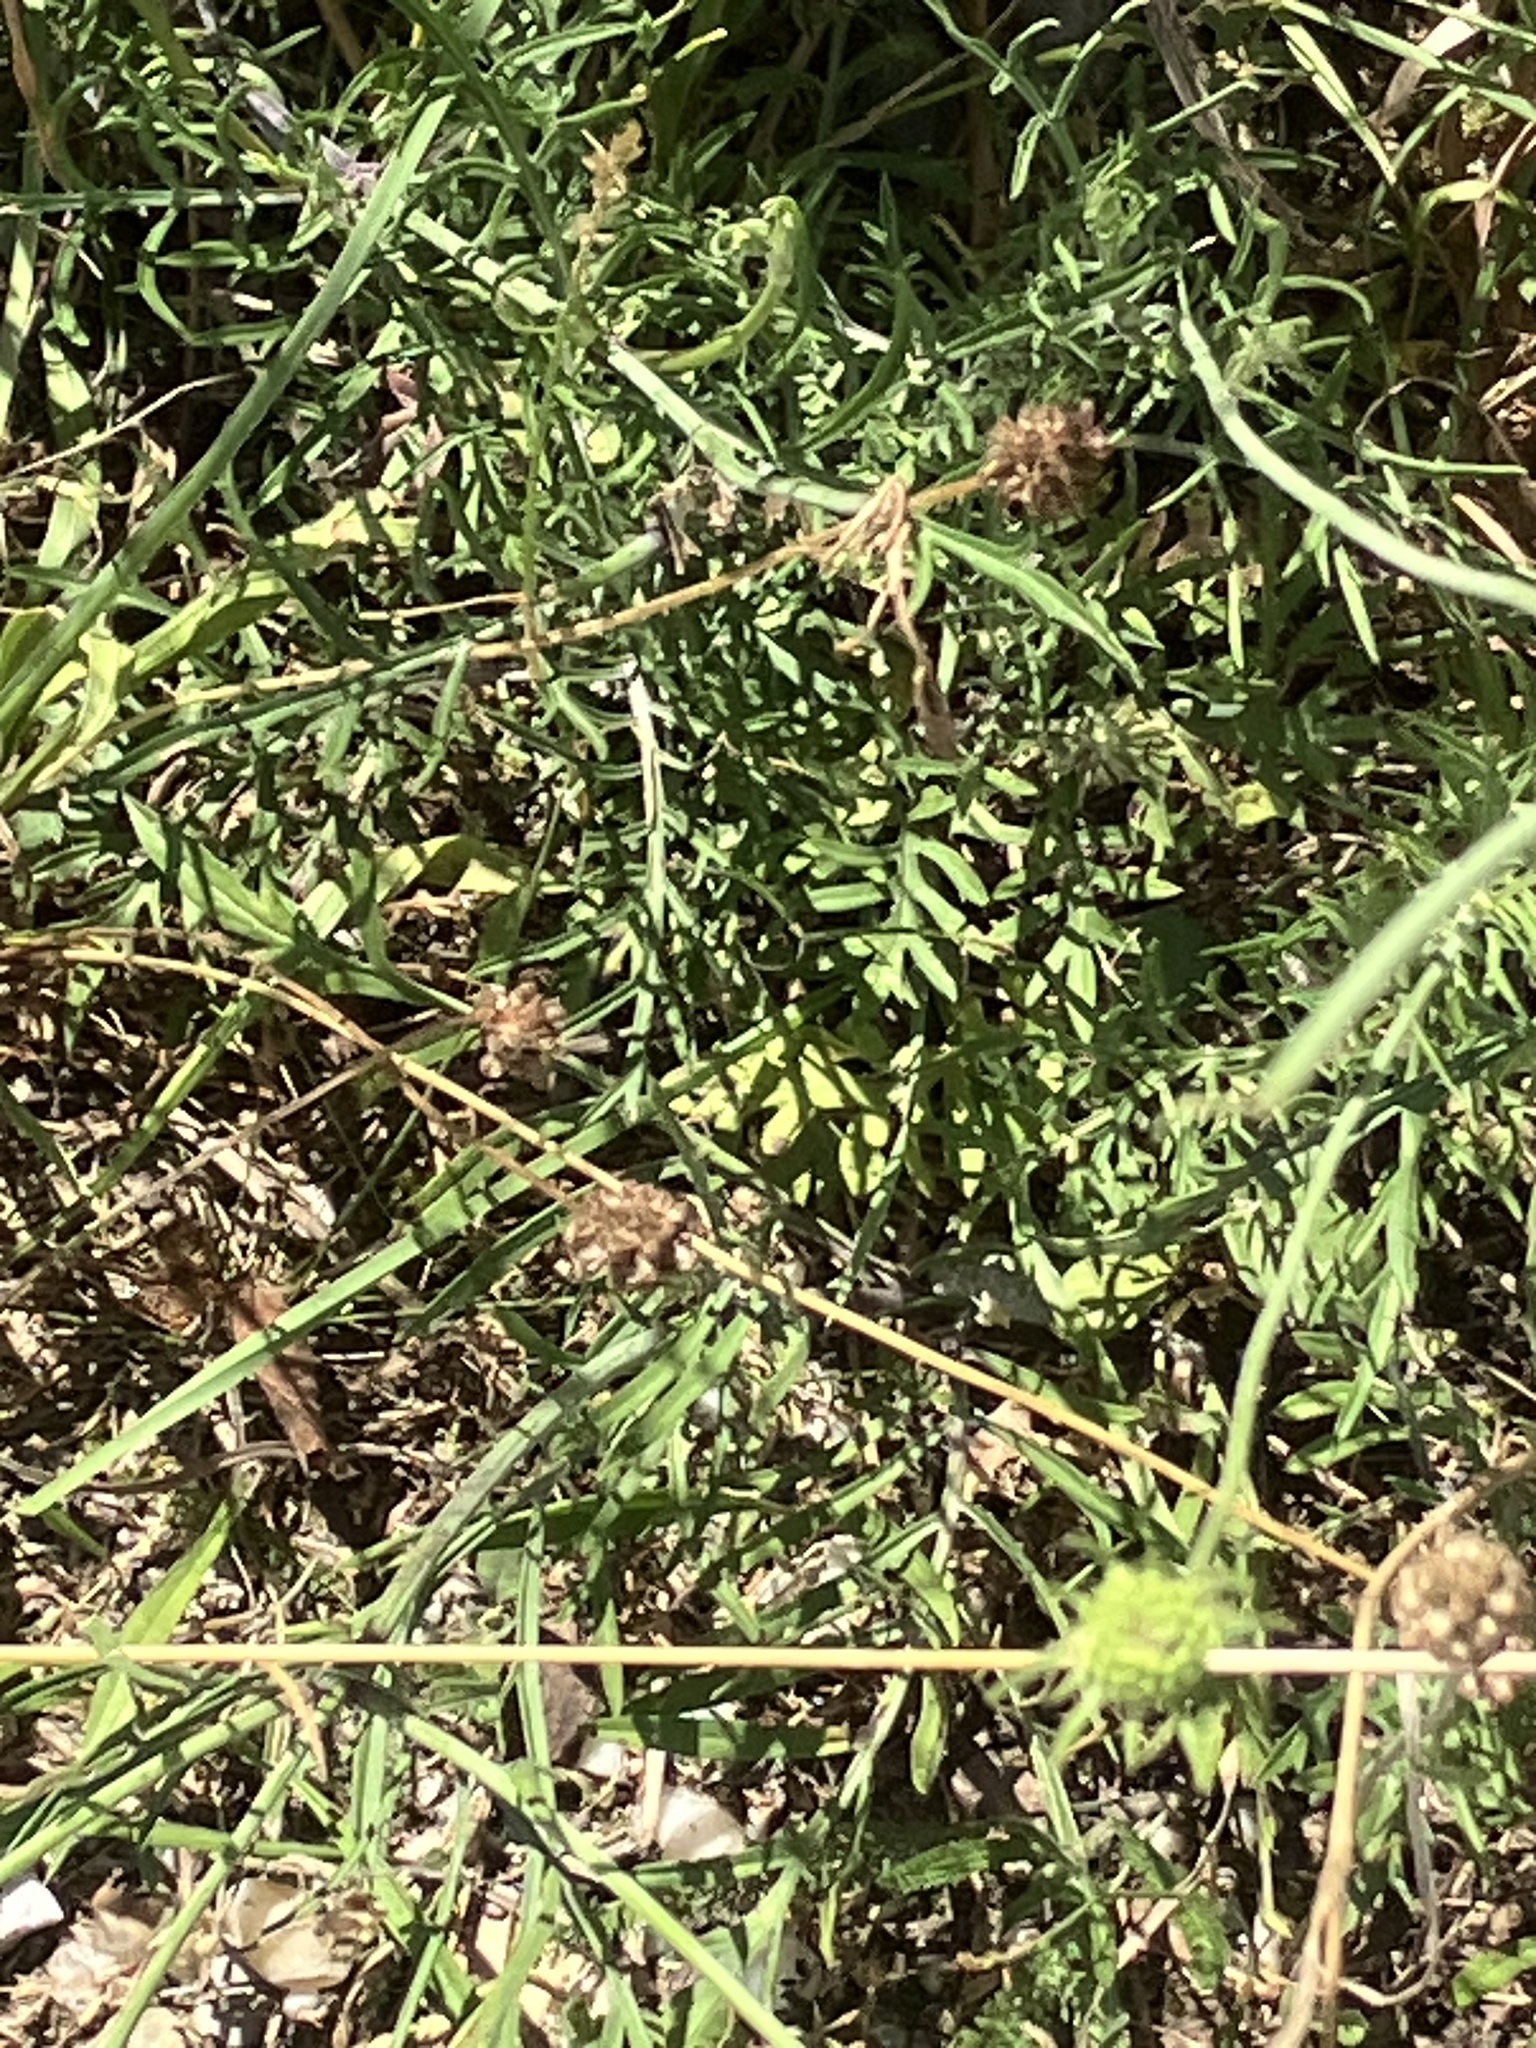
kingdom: Plantae
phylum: Tracheophyta
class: Magnoliopsida
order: Dipsacales
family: Caprifoliaceae
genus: Scabiosa
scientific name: Scabiosa ochroleuca
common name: Cream pincushions
